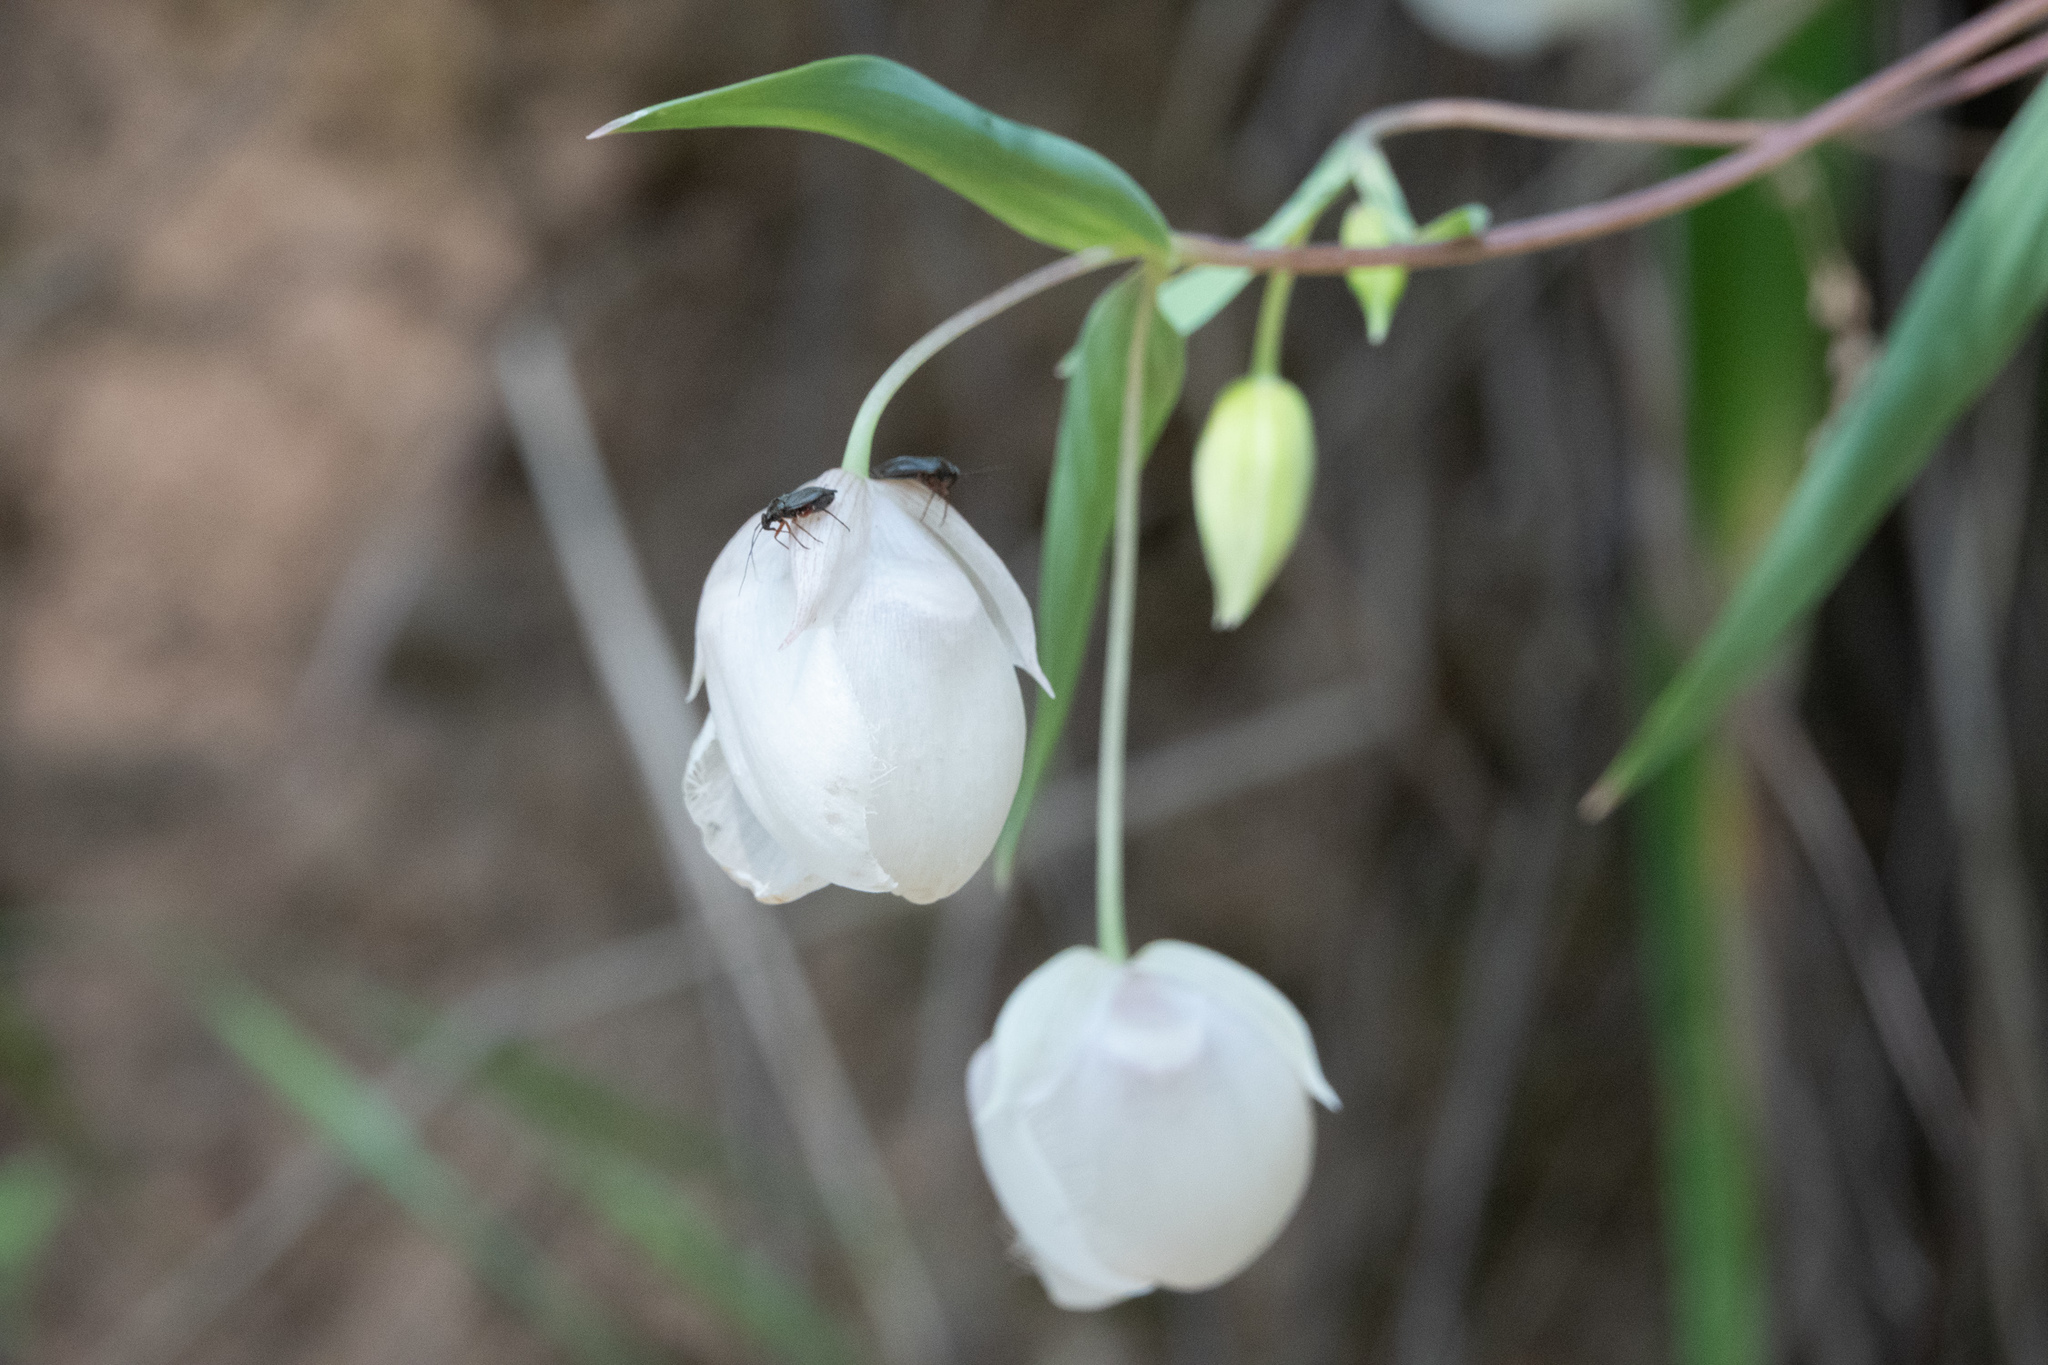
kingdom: Plantae
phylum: Tracheophyta
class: Liliopsida
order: Liliales
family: Liliaceae
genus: Calochortus
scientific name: Calochortus albus
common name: Fairy-lantern
